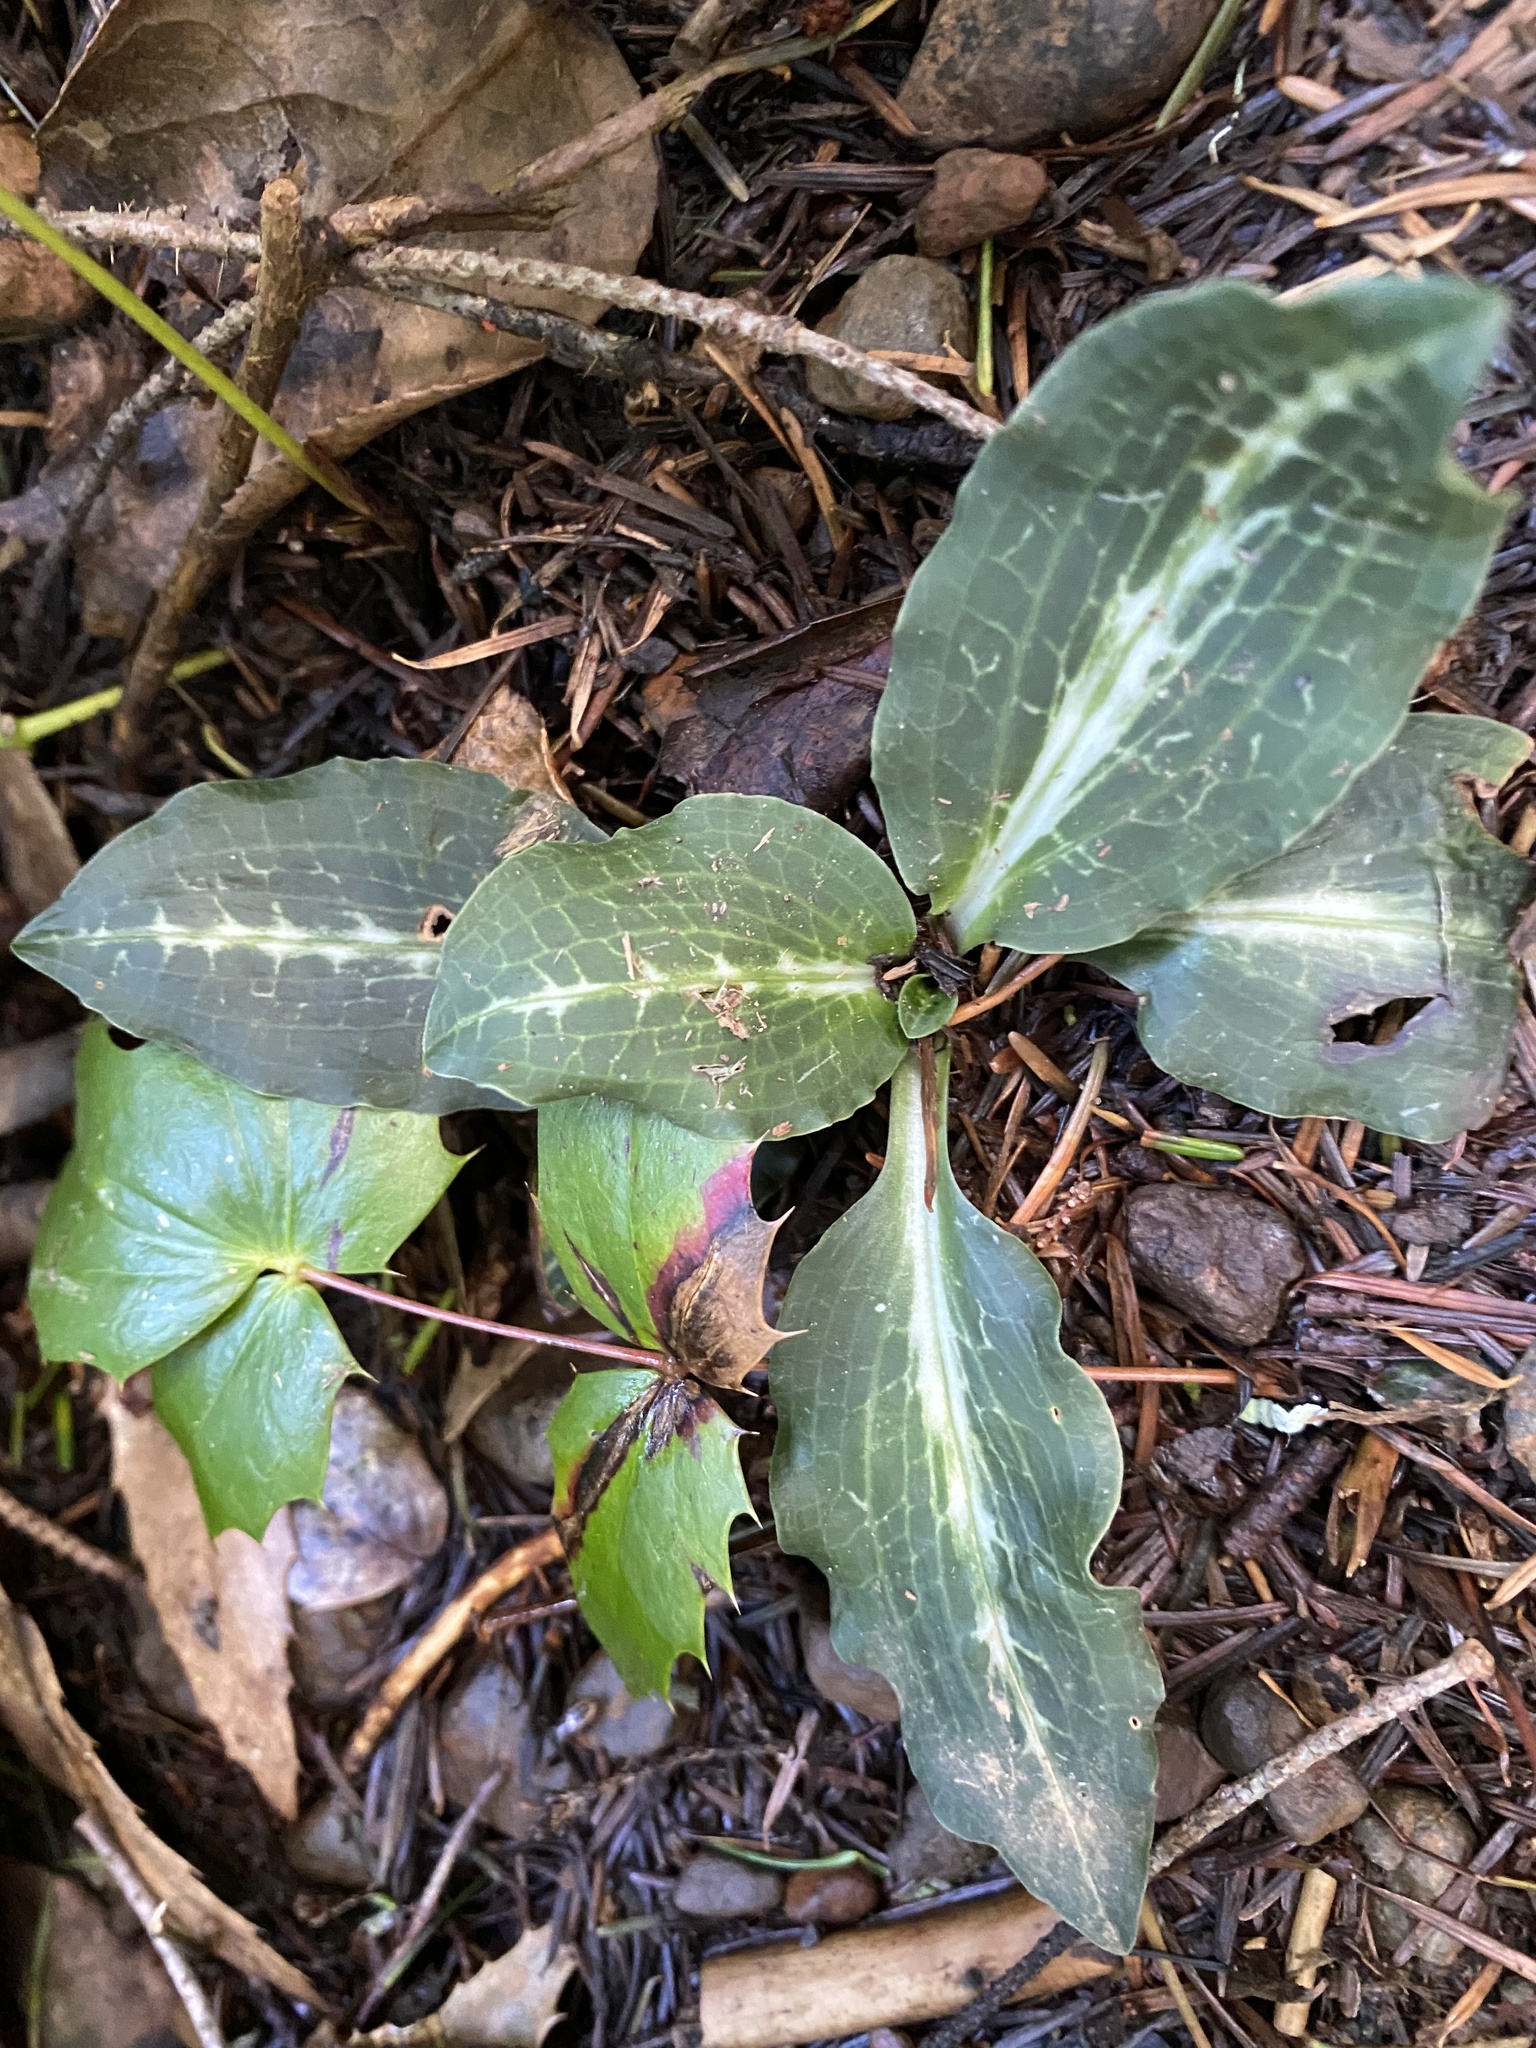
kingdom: Plantae
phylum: Tracheophyta
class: Liliopsida
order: Asparagales
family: Orchidaceae
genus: Goodyera
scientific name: Goodyera oblongifolia
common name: Giant rattlesnake-plantain
